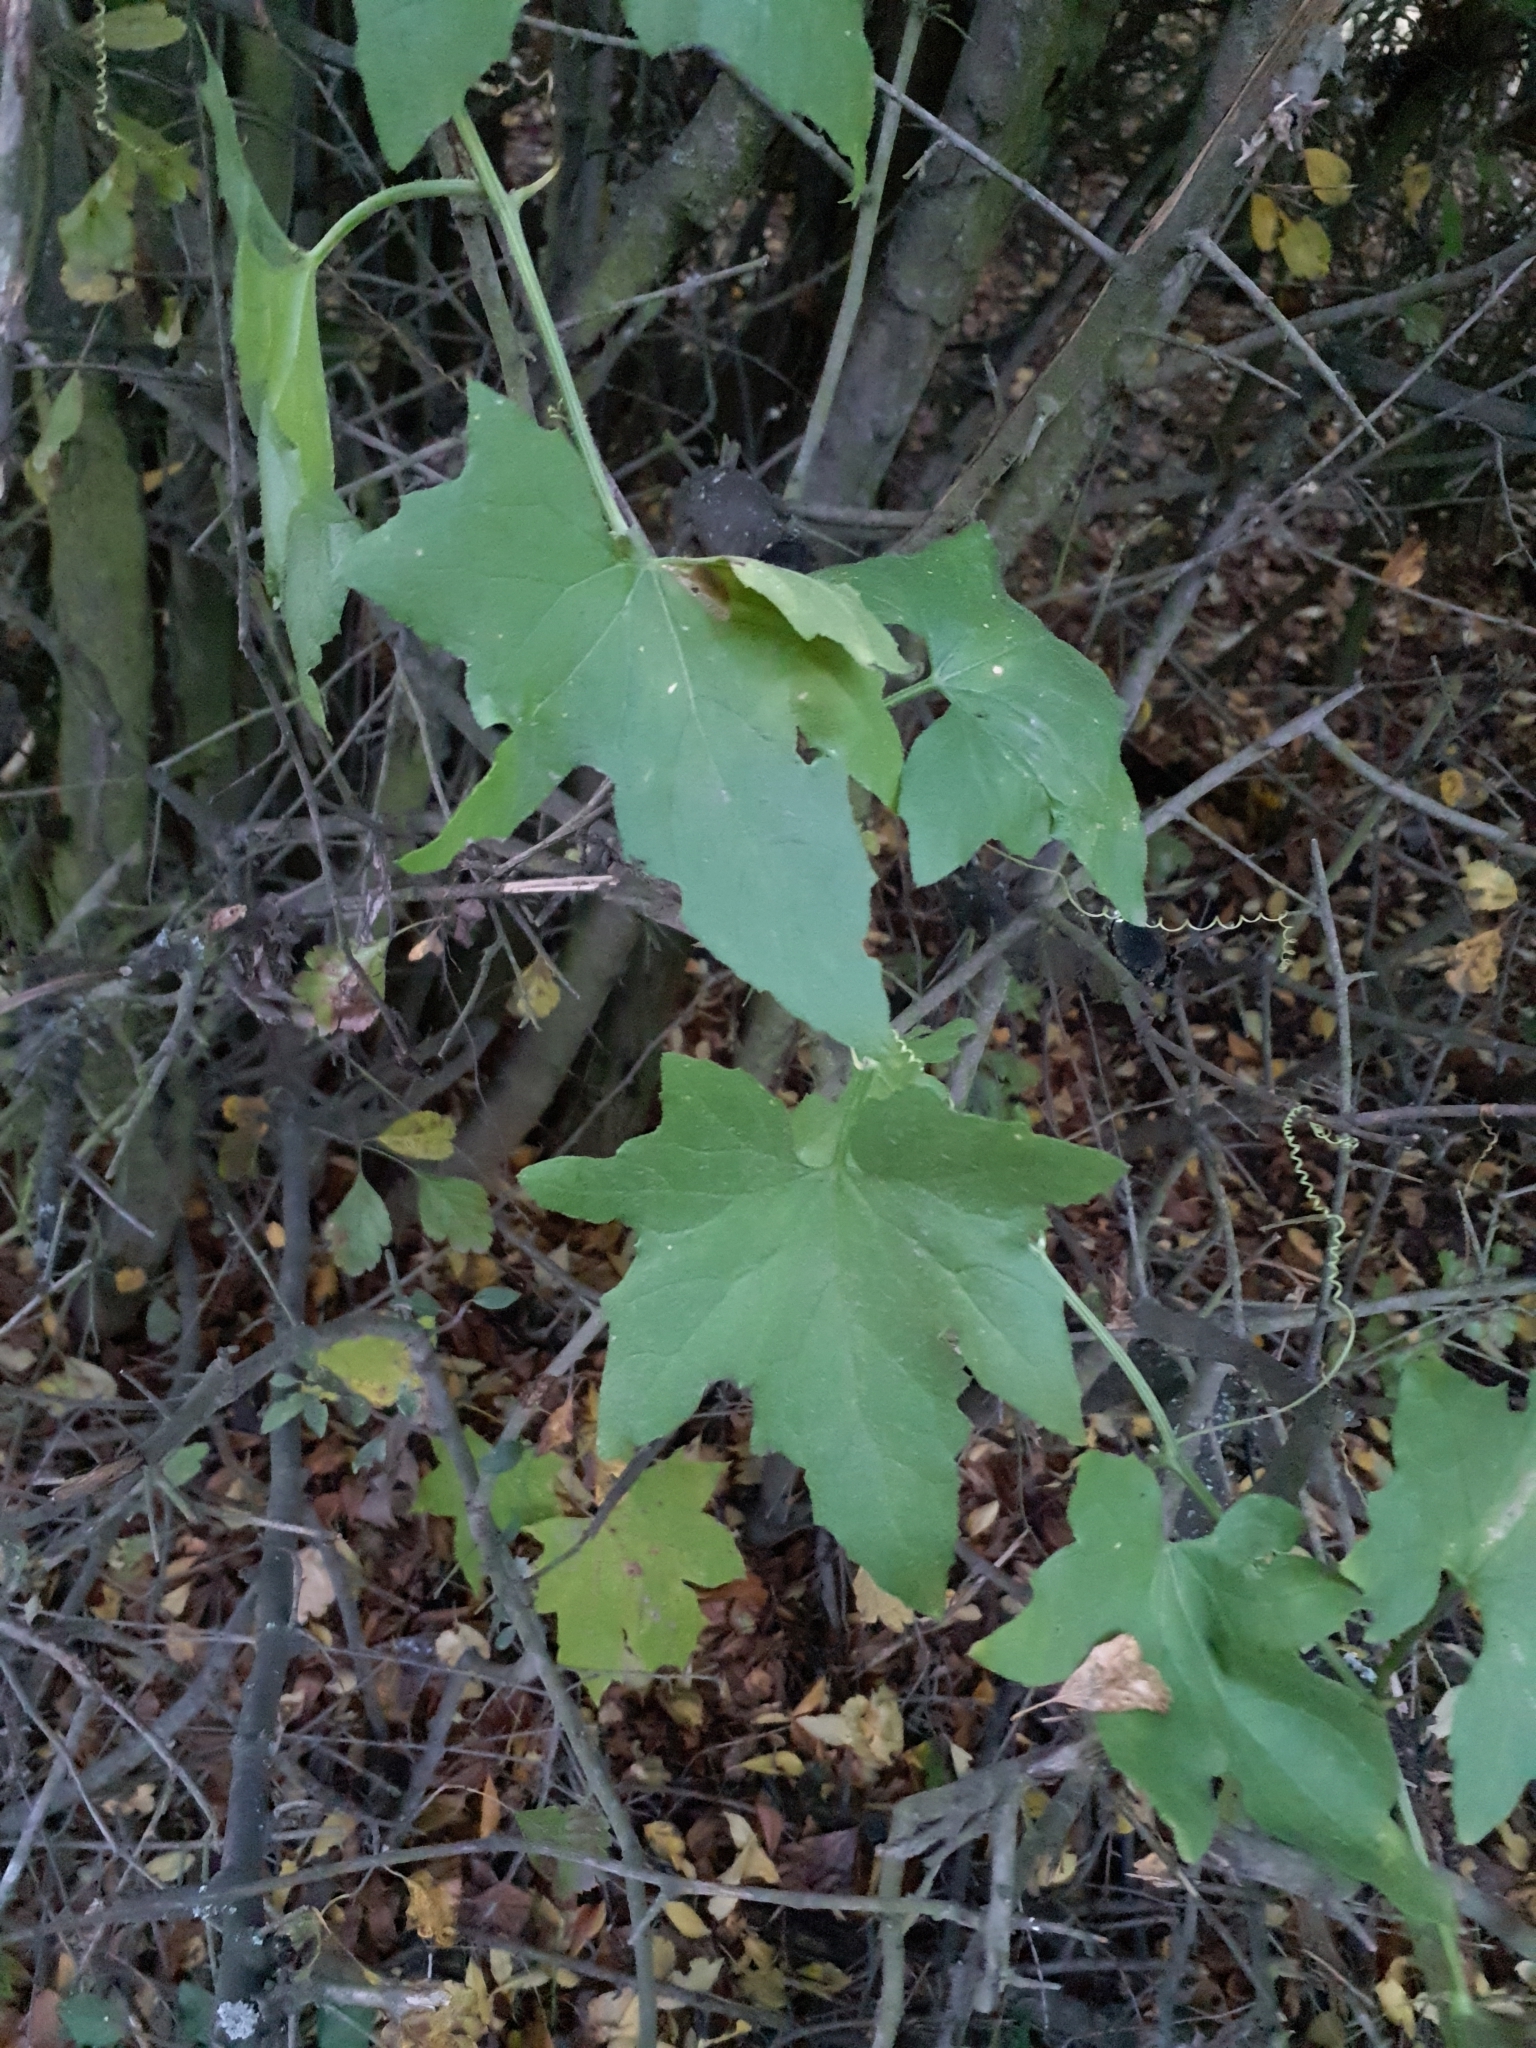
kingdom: Plantae
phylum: Tracheophyta
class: Magnoliopsida
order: Cucurbitales
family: Cucurbitaceae
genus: Bryonia
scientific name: Bryonia alba
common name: White bryony
